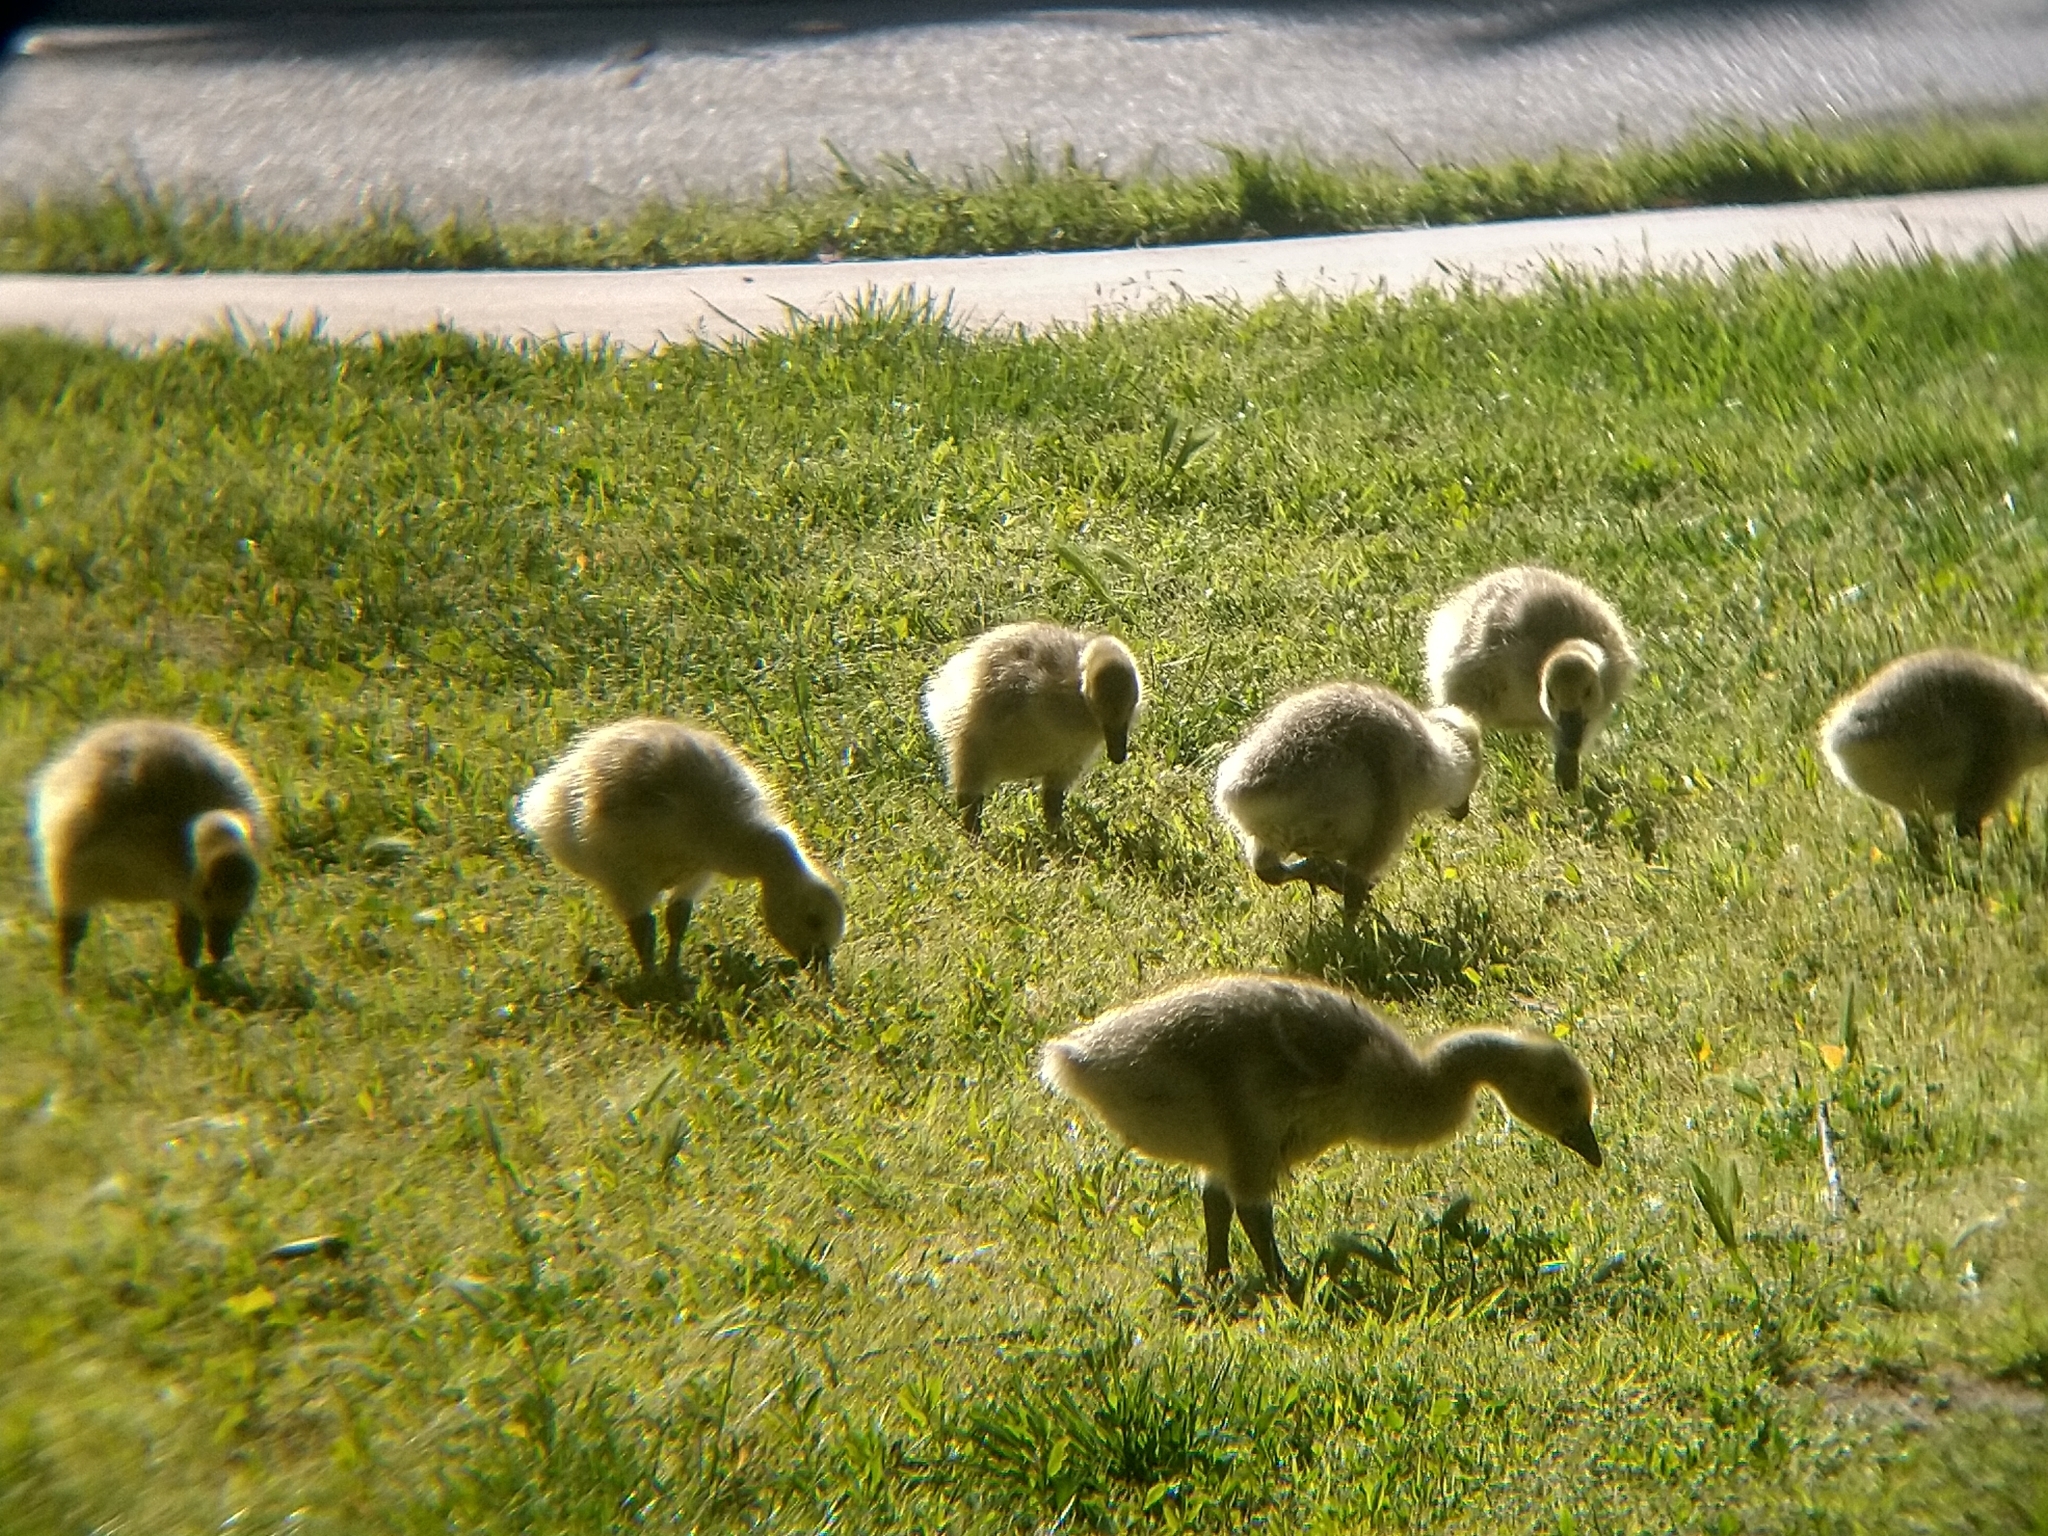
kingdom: Animalia
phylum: Chordata
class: Aves
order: Anseriformes
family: Anatidae
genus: Branta
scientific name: Branta canadensis
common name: Canada goose
